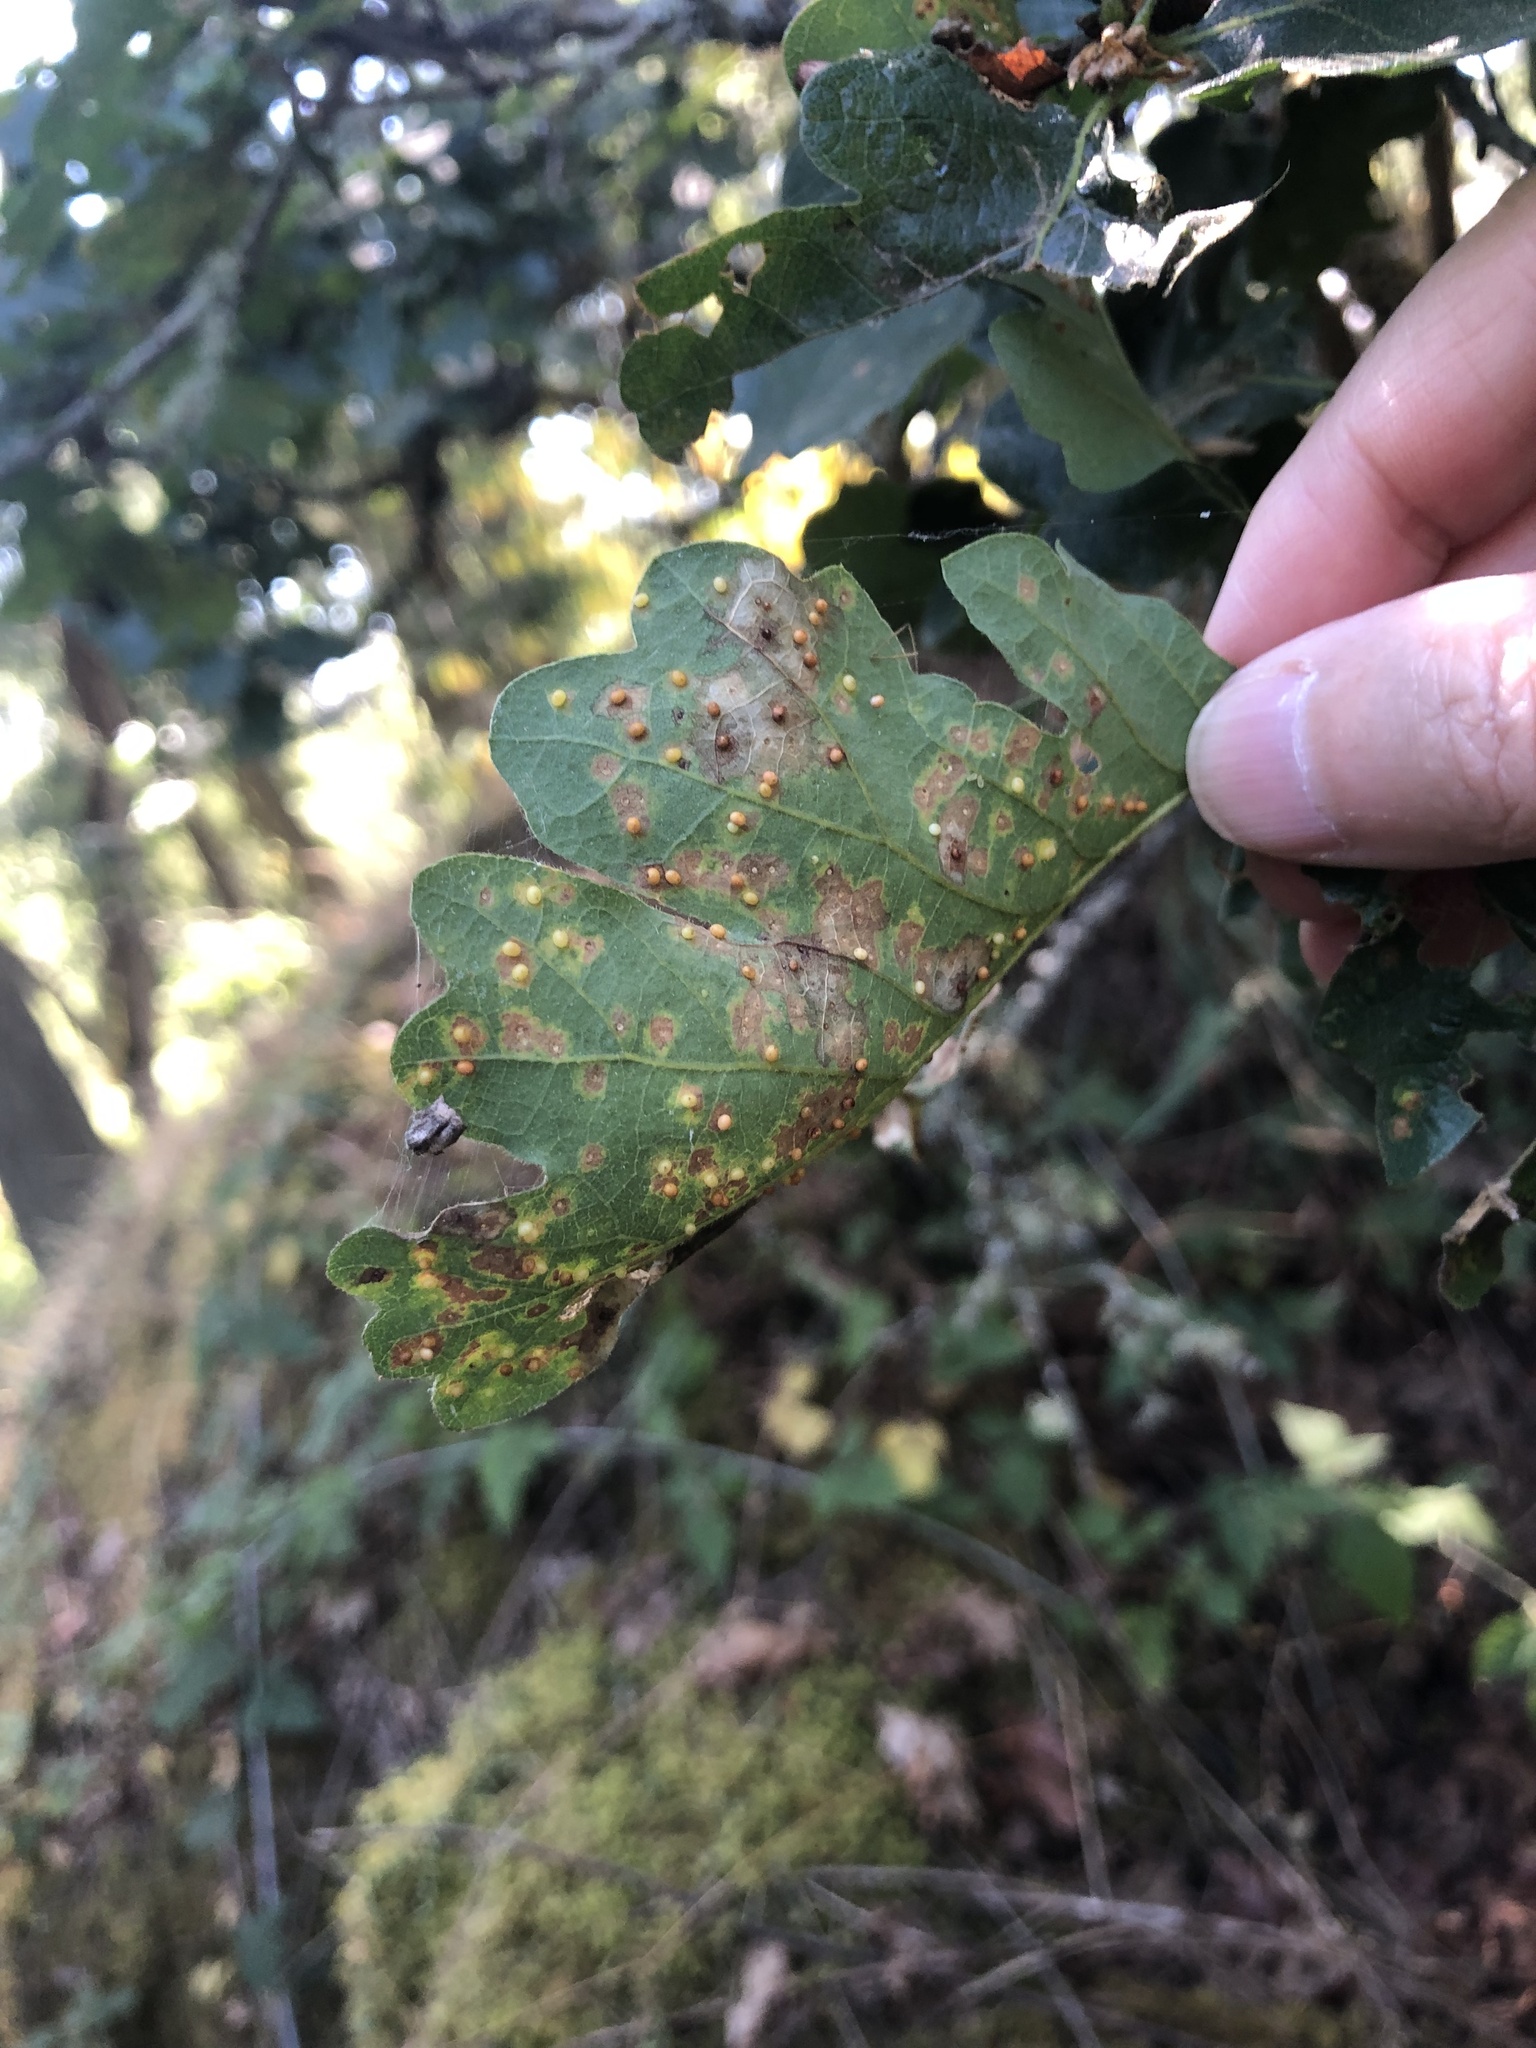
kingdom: Animalia
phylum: Arthropoda
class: Insecta
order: Hymenoptera
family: Cynipidae
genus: Neuroterus
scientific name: Neuroterus saltarius
